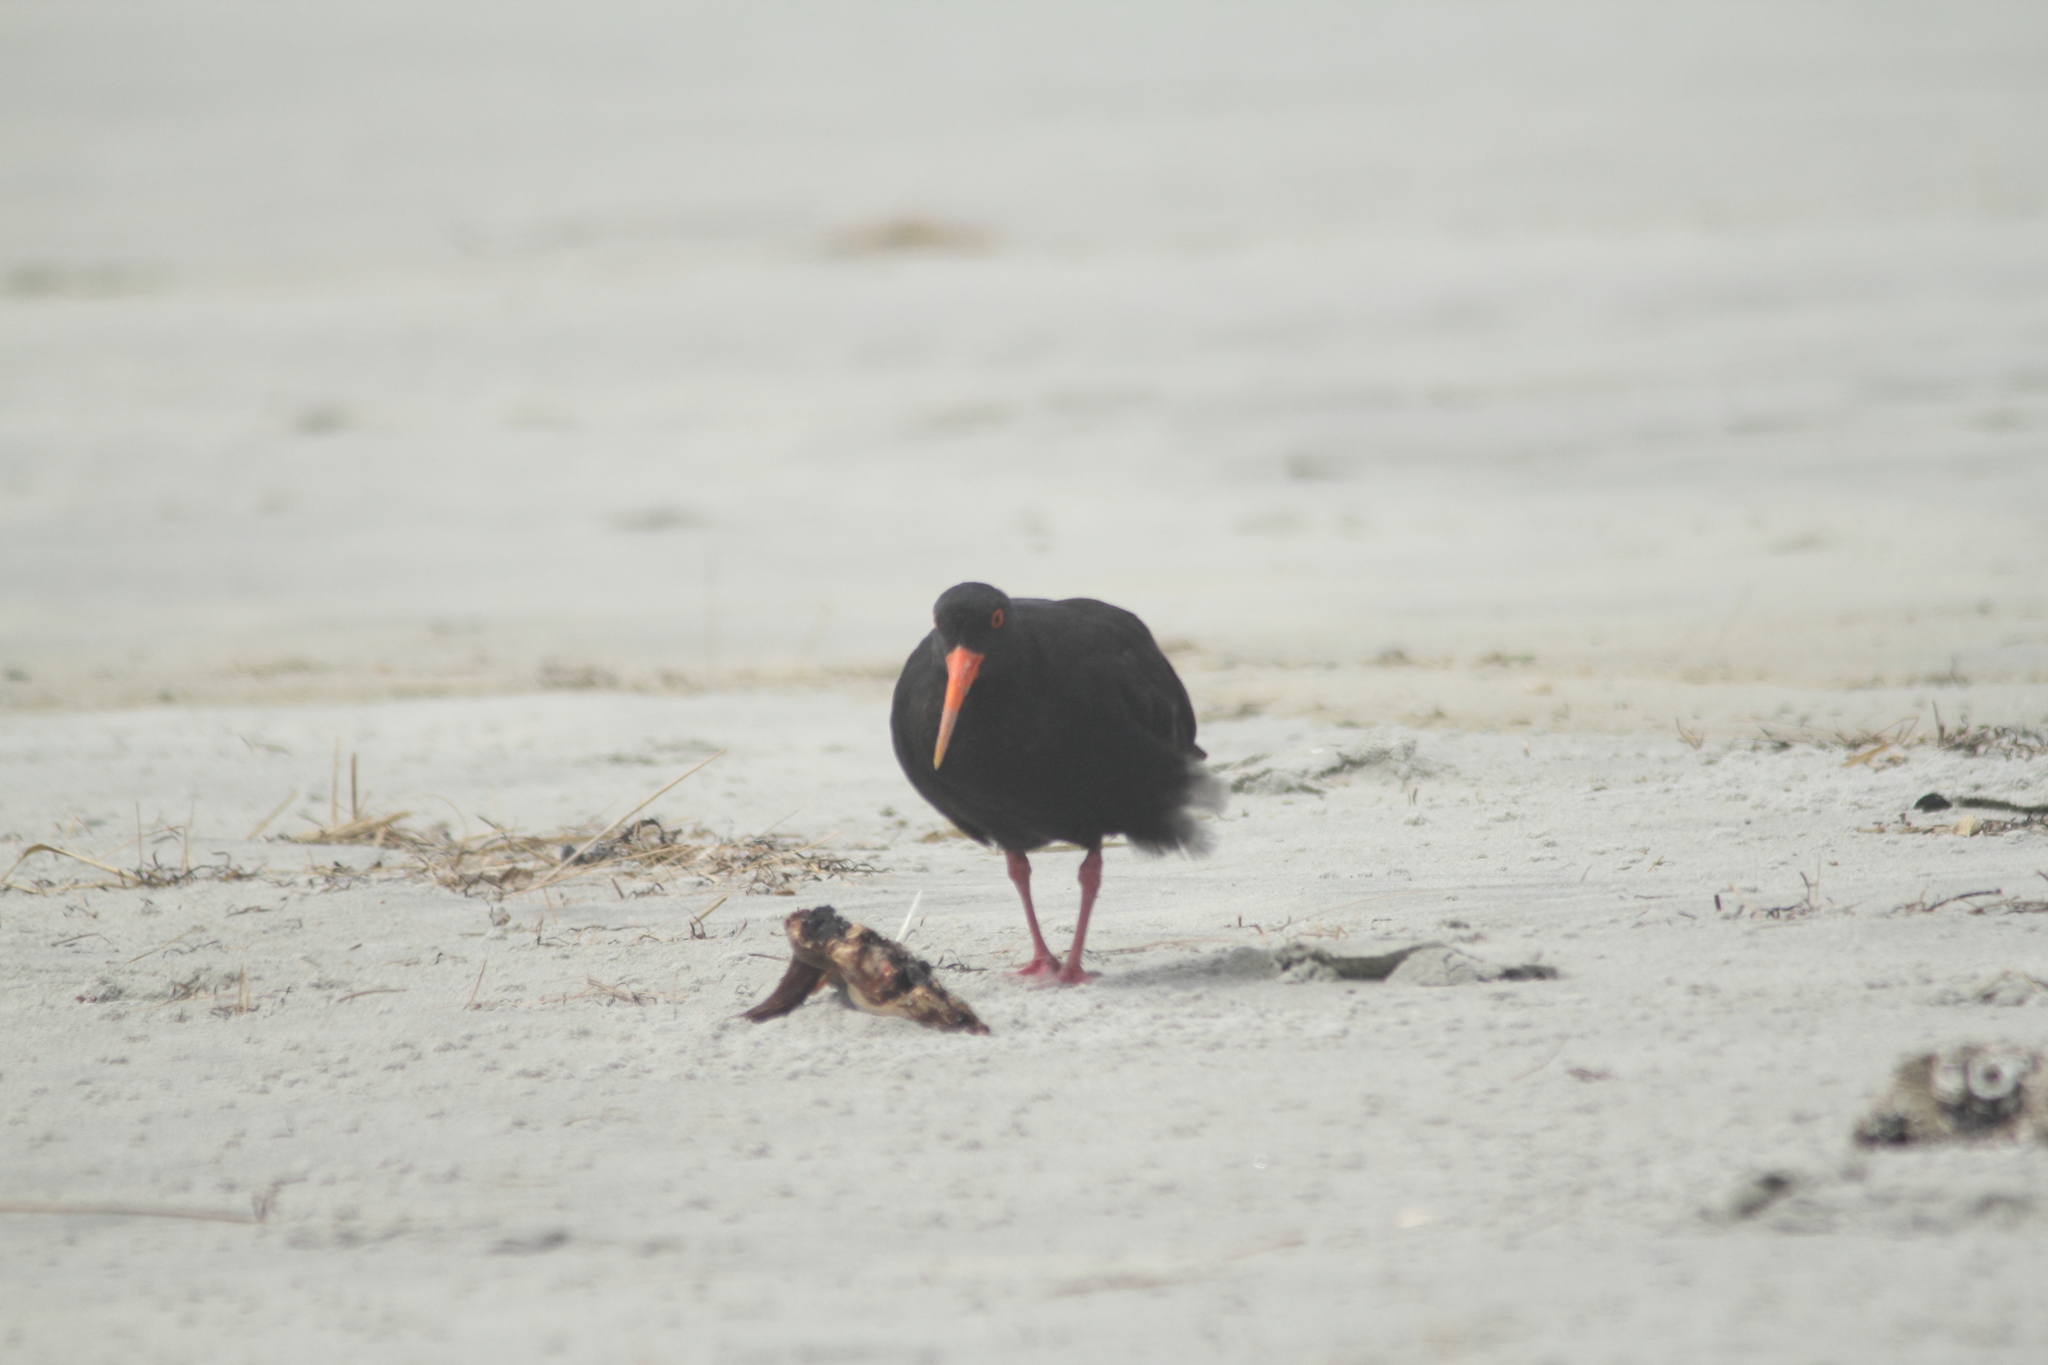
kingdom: Animalia
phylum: Chordata
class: Aves
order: Charadriiformes
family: Haematopodidae
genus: Haematopus
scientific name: Haematopus unicolor
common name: Variable oystercatcher
